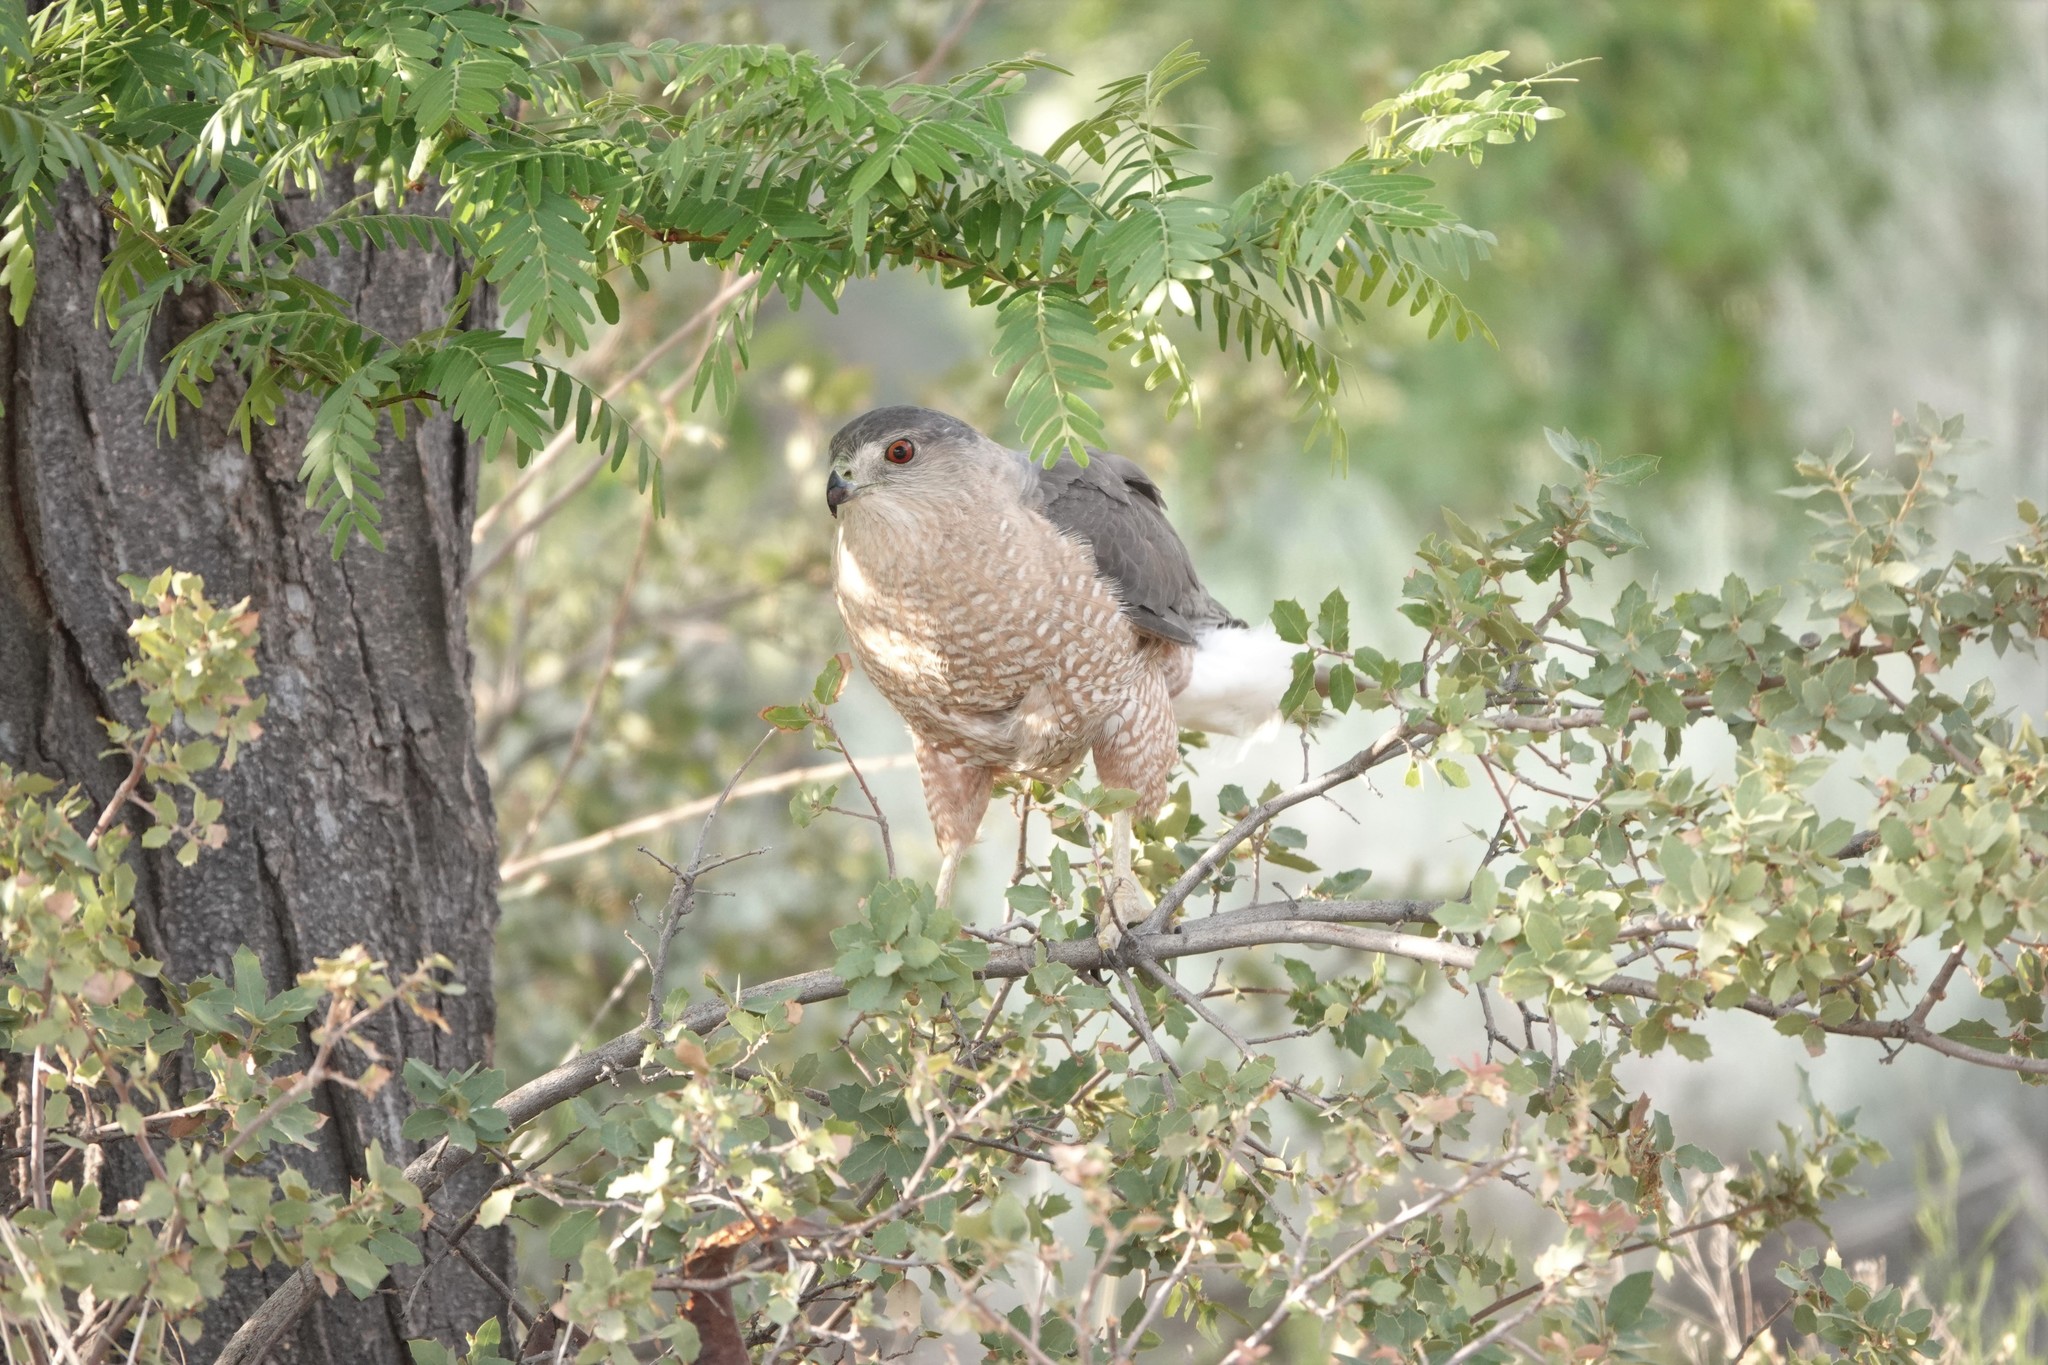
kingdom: Animalia
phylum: Chordata
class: Aves
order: Accipitriformes
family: Accipitridae
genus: Accipiter
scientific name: Accipiter cooperii
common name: Cooper's hawk
